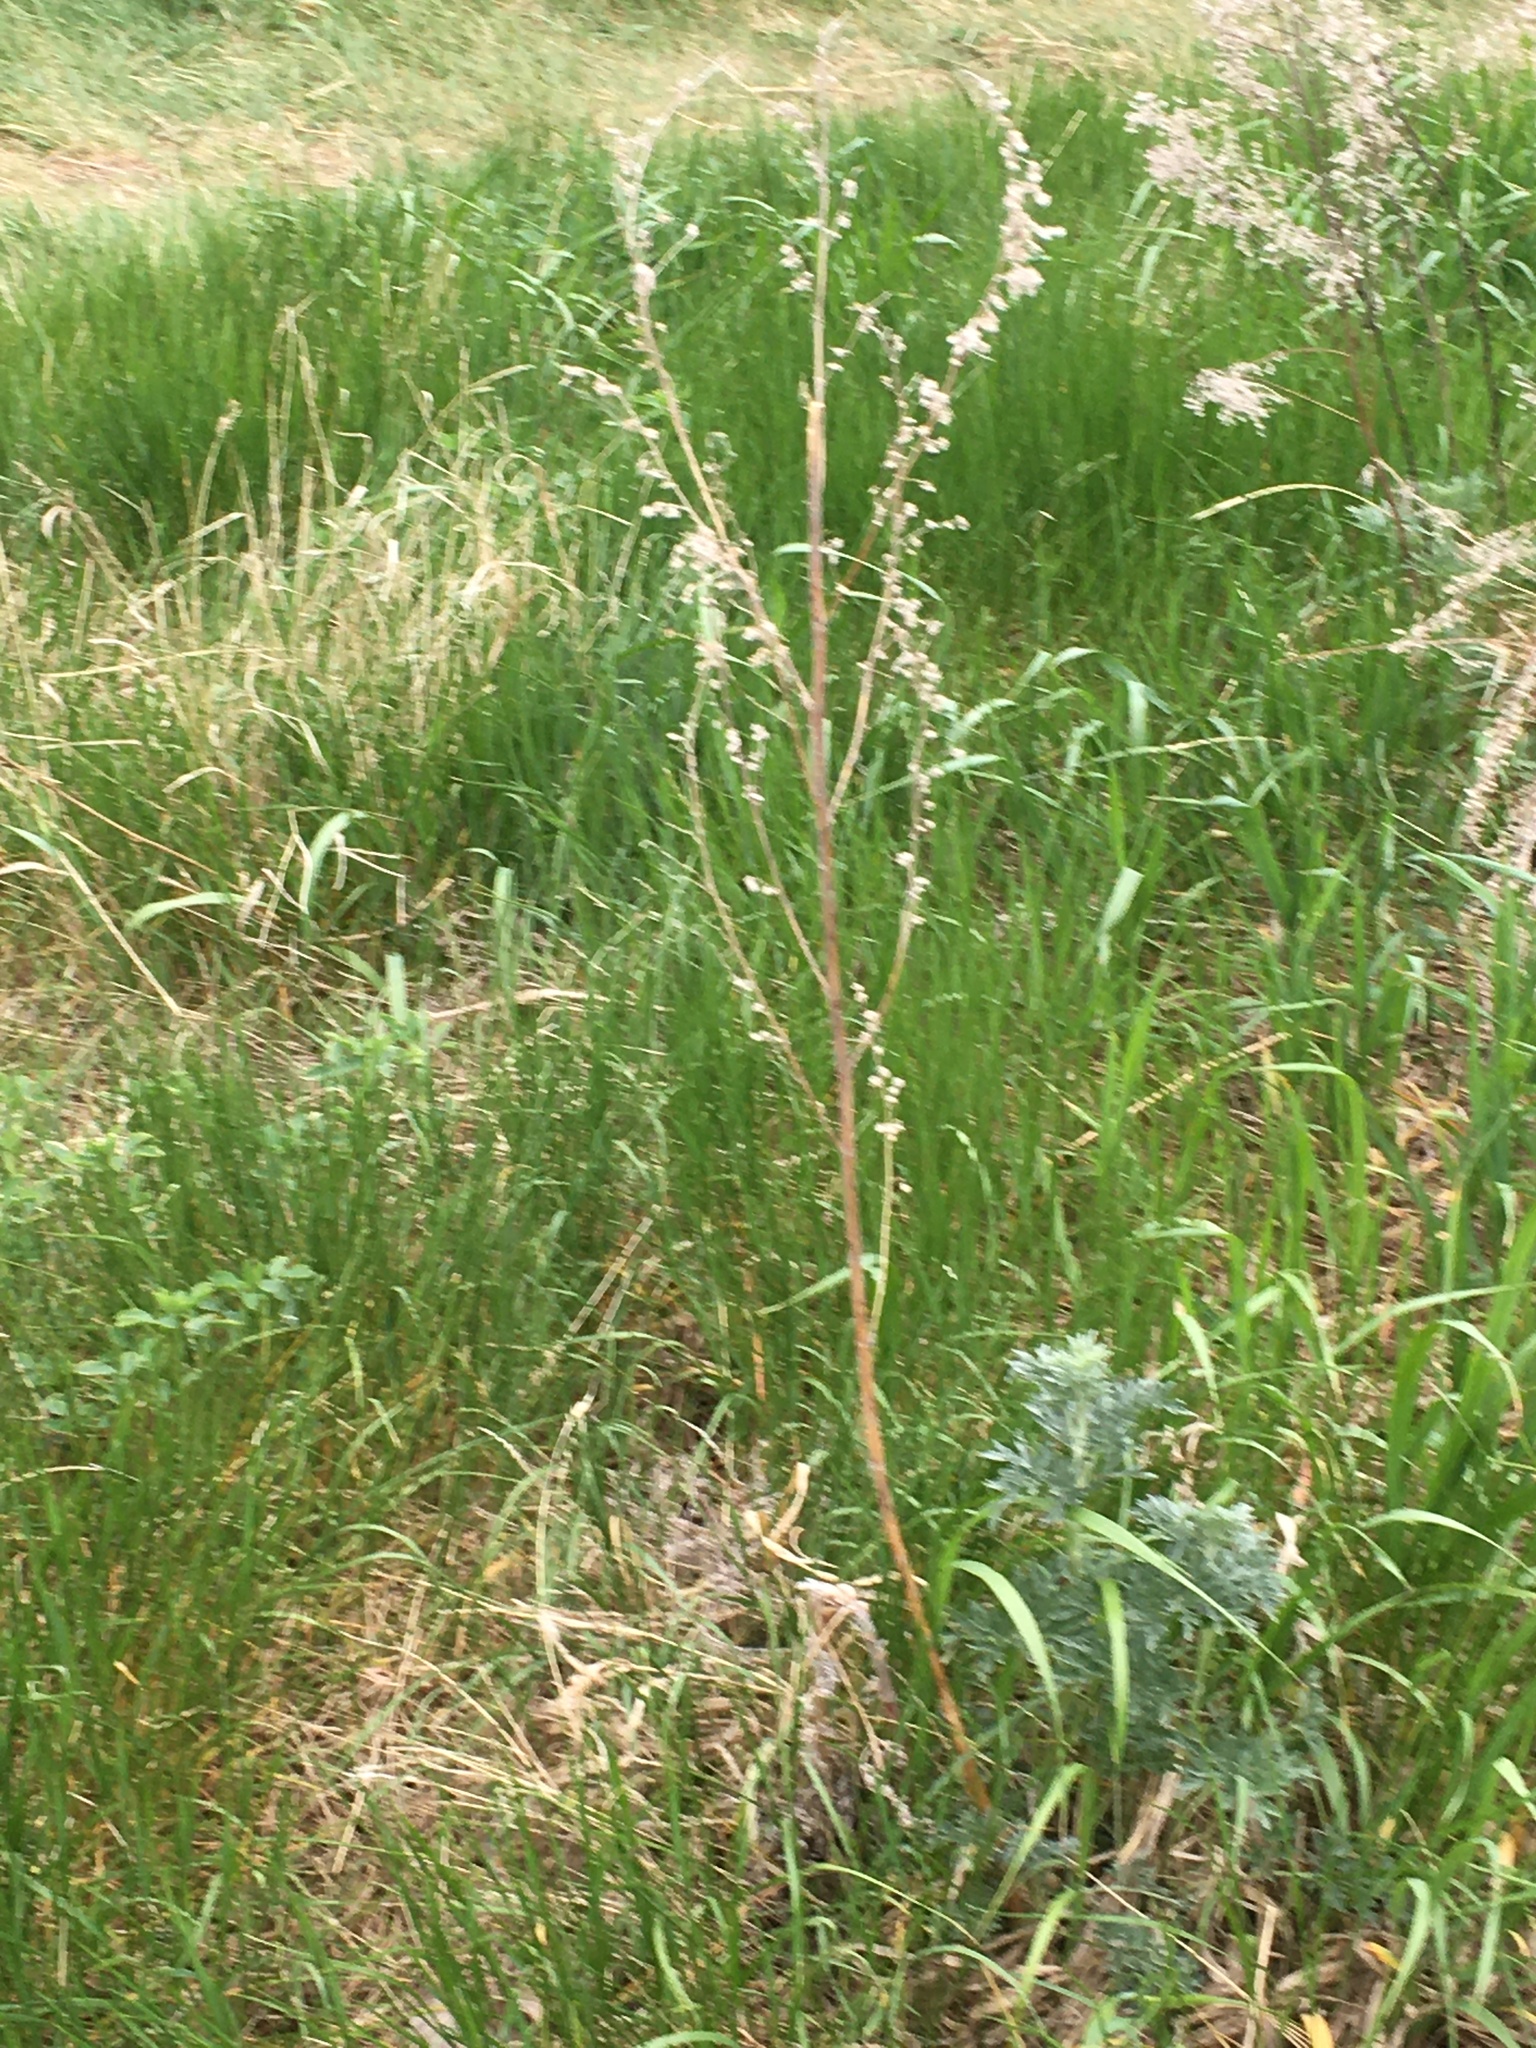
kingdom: Plantae
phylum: Tracheophyta
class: Magnoliopsida
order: Asterales
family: Asteraceae
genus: Artemisia
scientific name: Artemisia absinthium
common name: Wormwood
